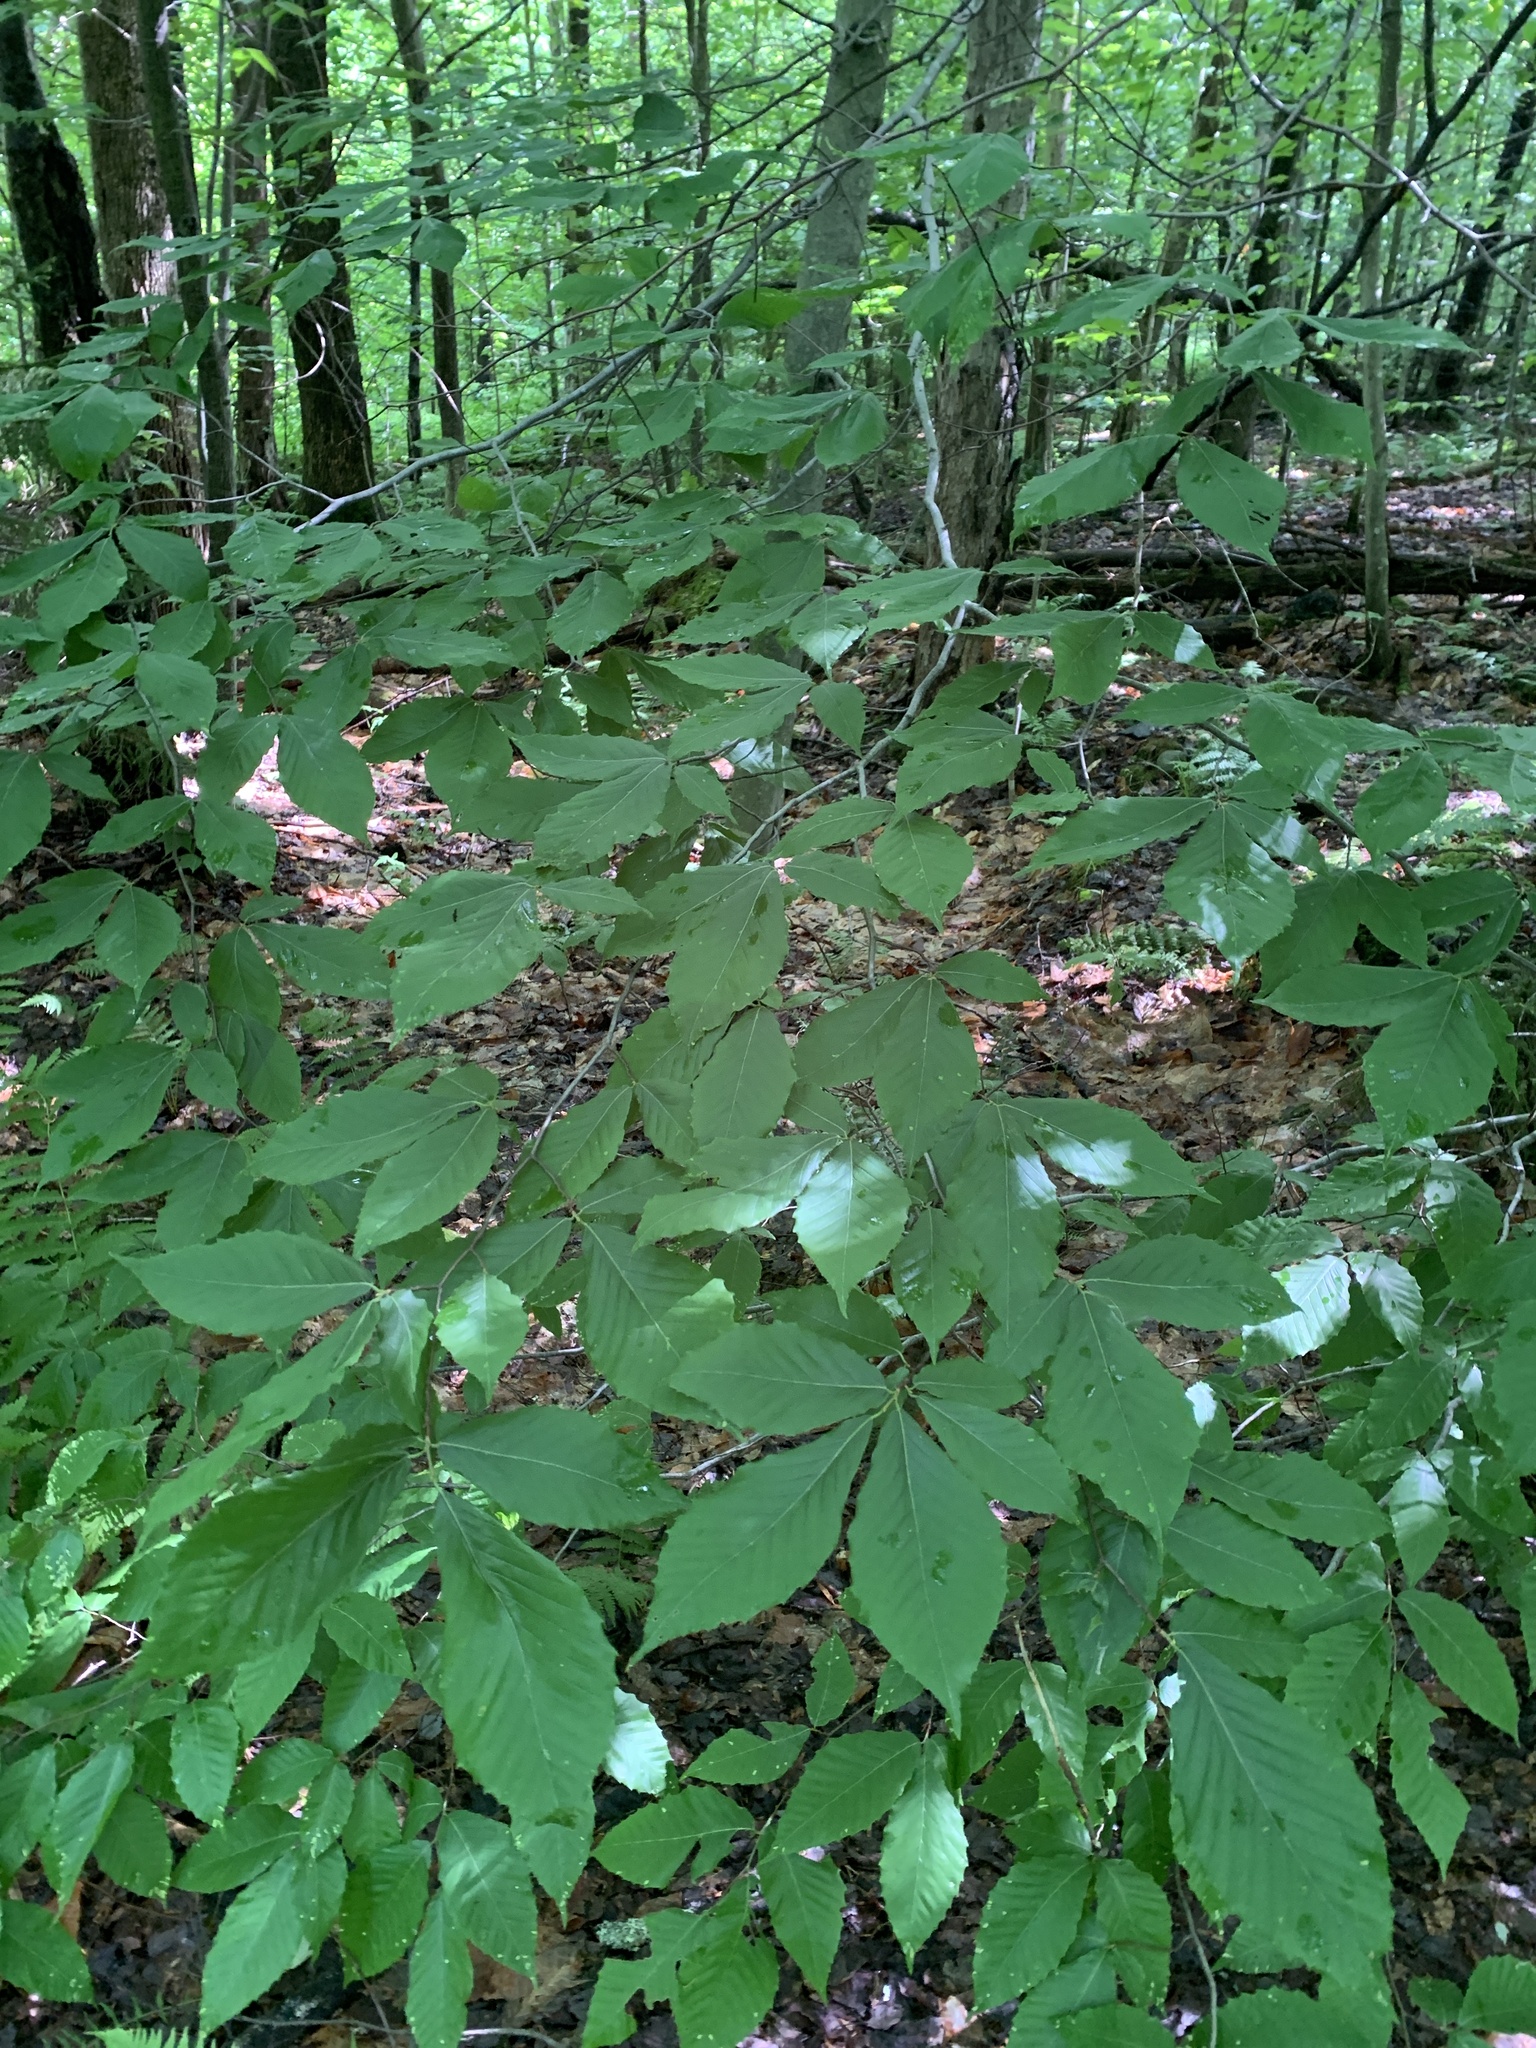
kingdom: Plantae
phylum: Tracheophyta
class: Magnoliopsida
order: Fagales
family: Fagaceae
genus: Fagus
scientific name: Fagus grandifolia
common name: American beech
